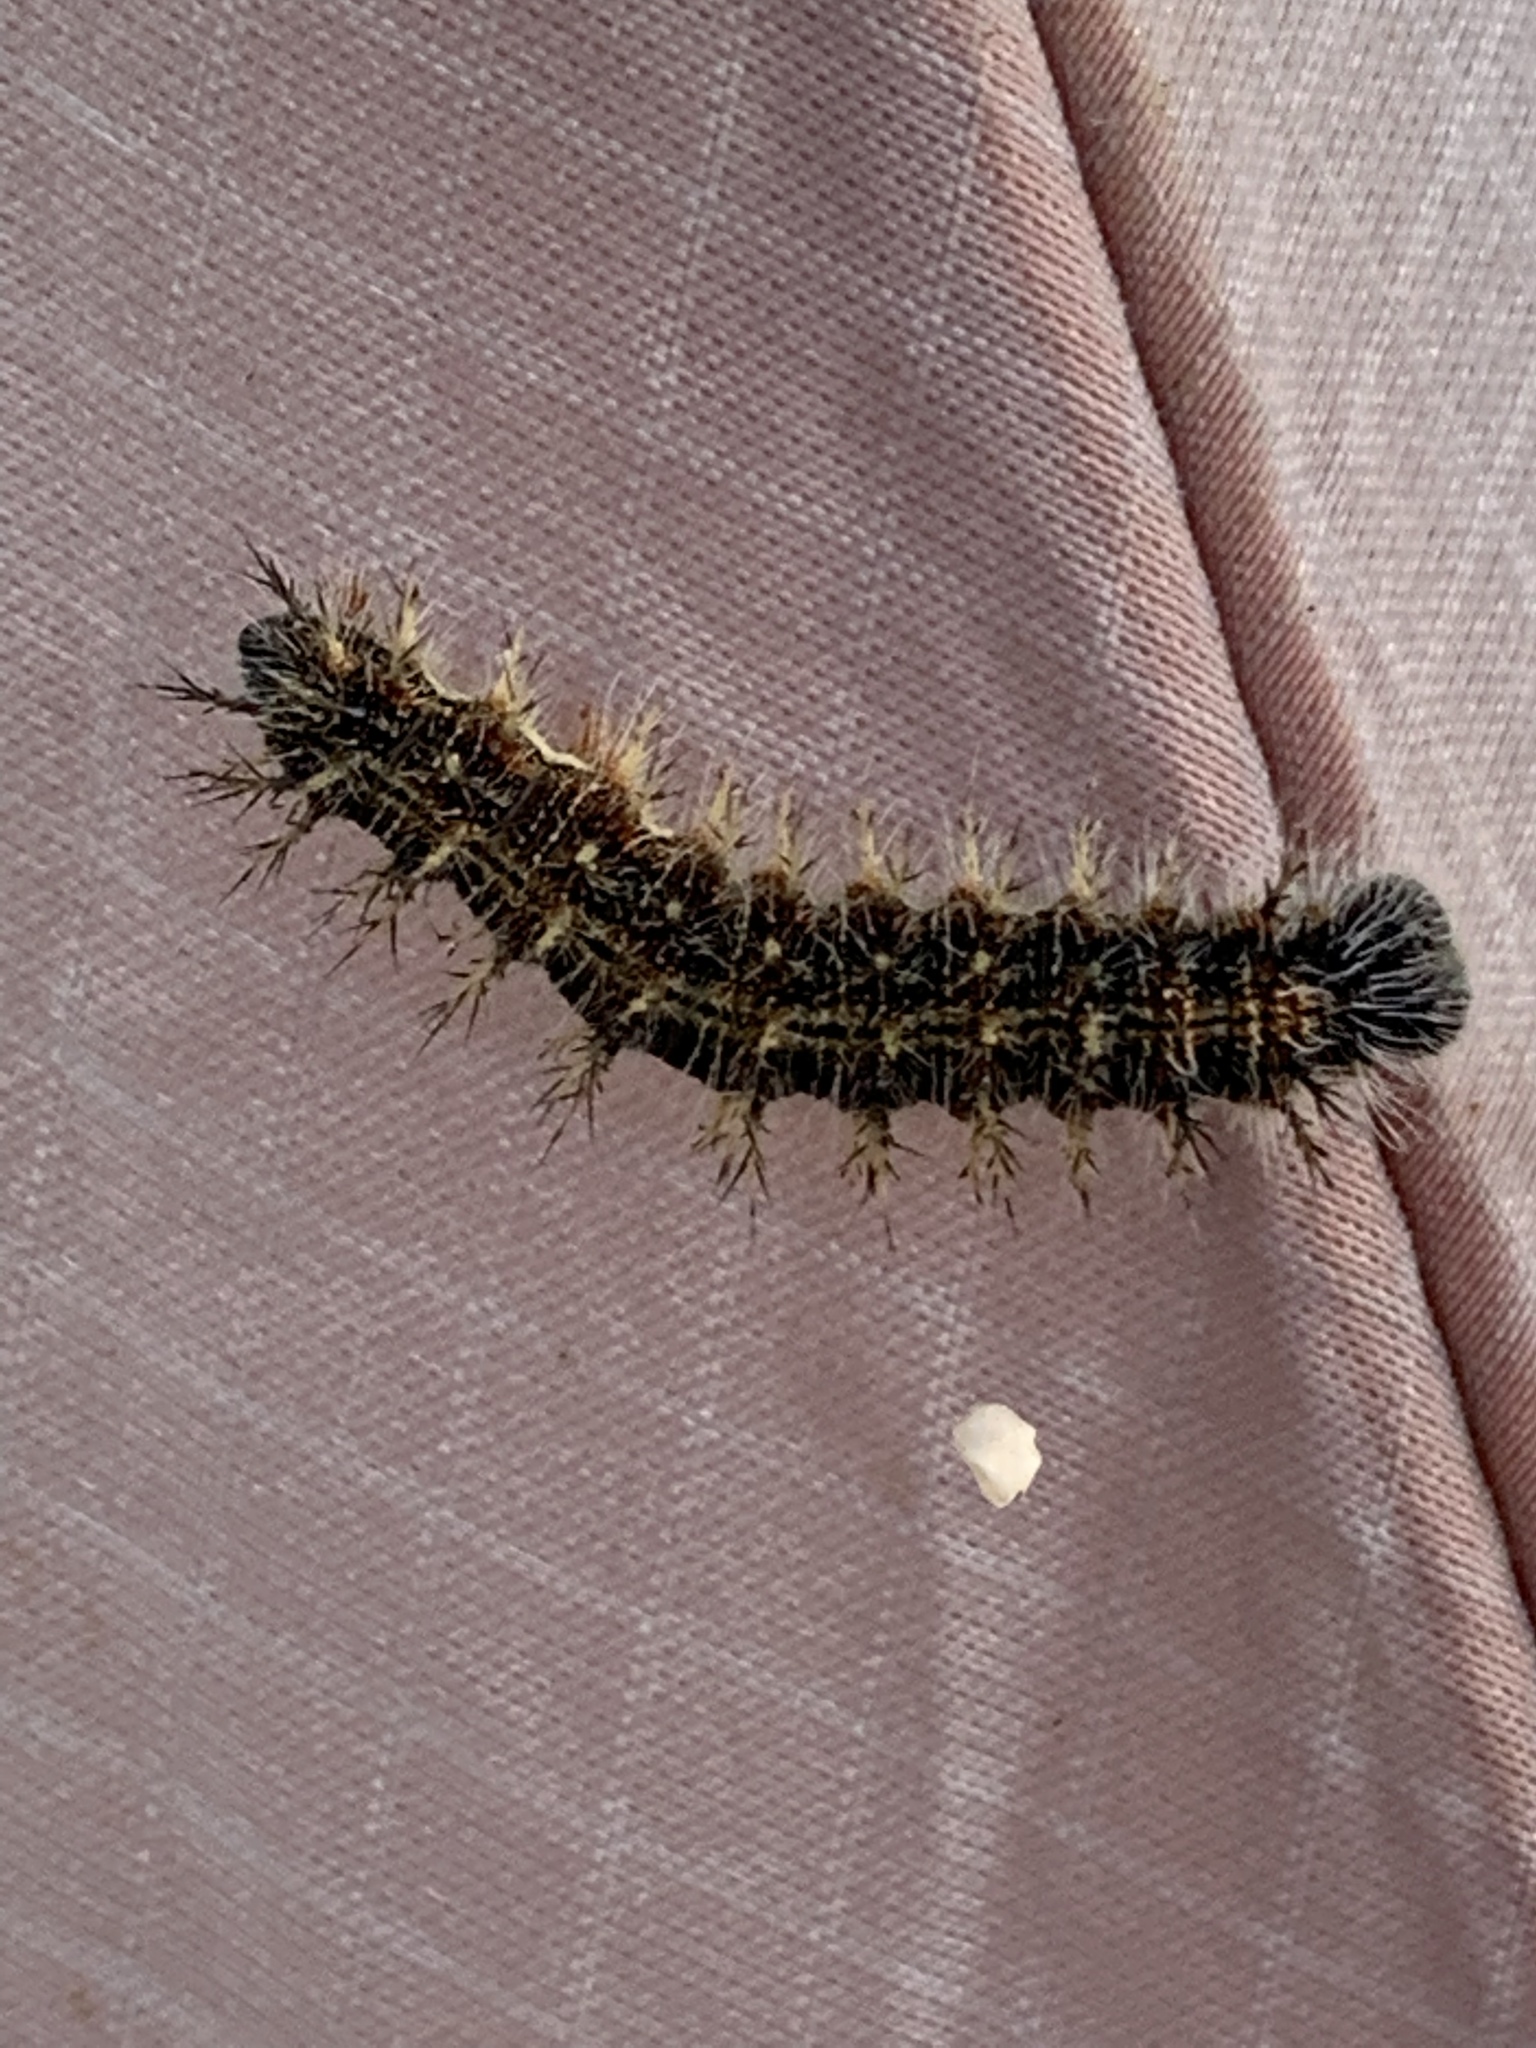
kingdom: Animalia
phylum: Arthropoda
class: Insecta
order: Lepidoptera
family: Nymphalidae
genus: Vanessa
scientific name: Vanessa cardui
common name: Painted lady
